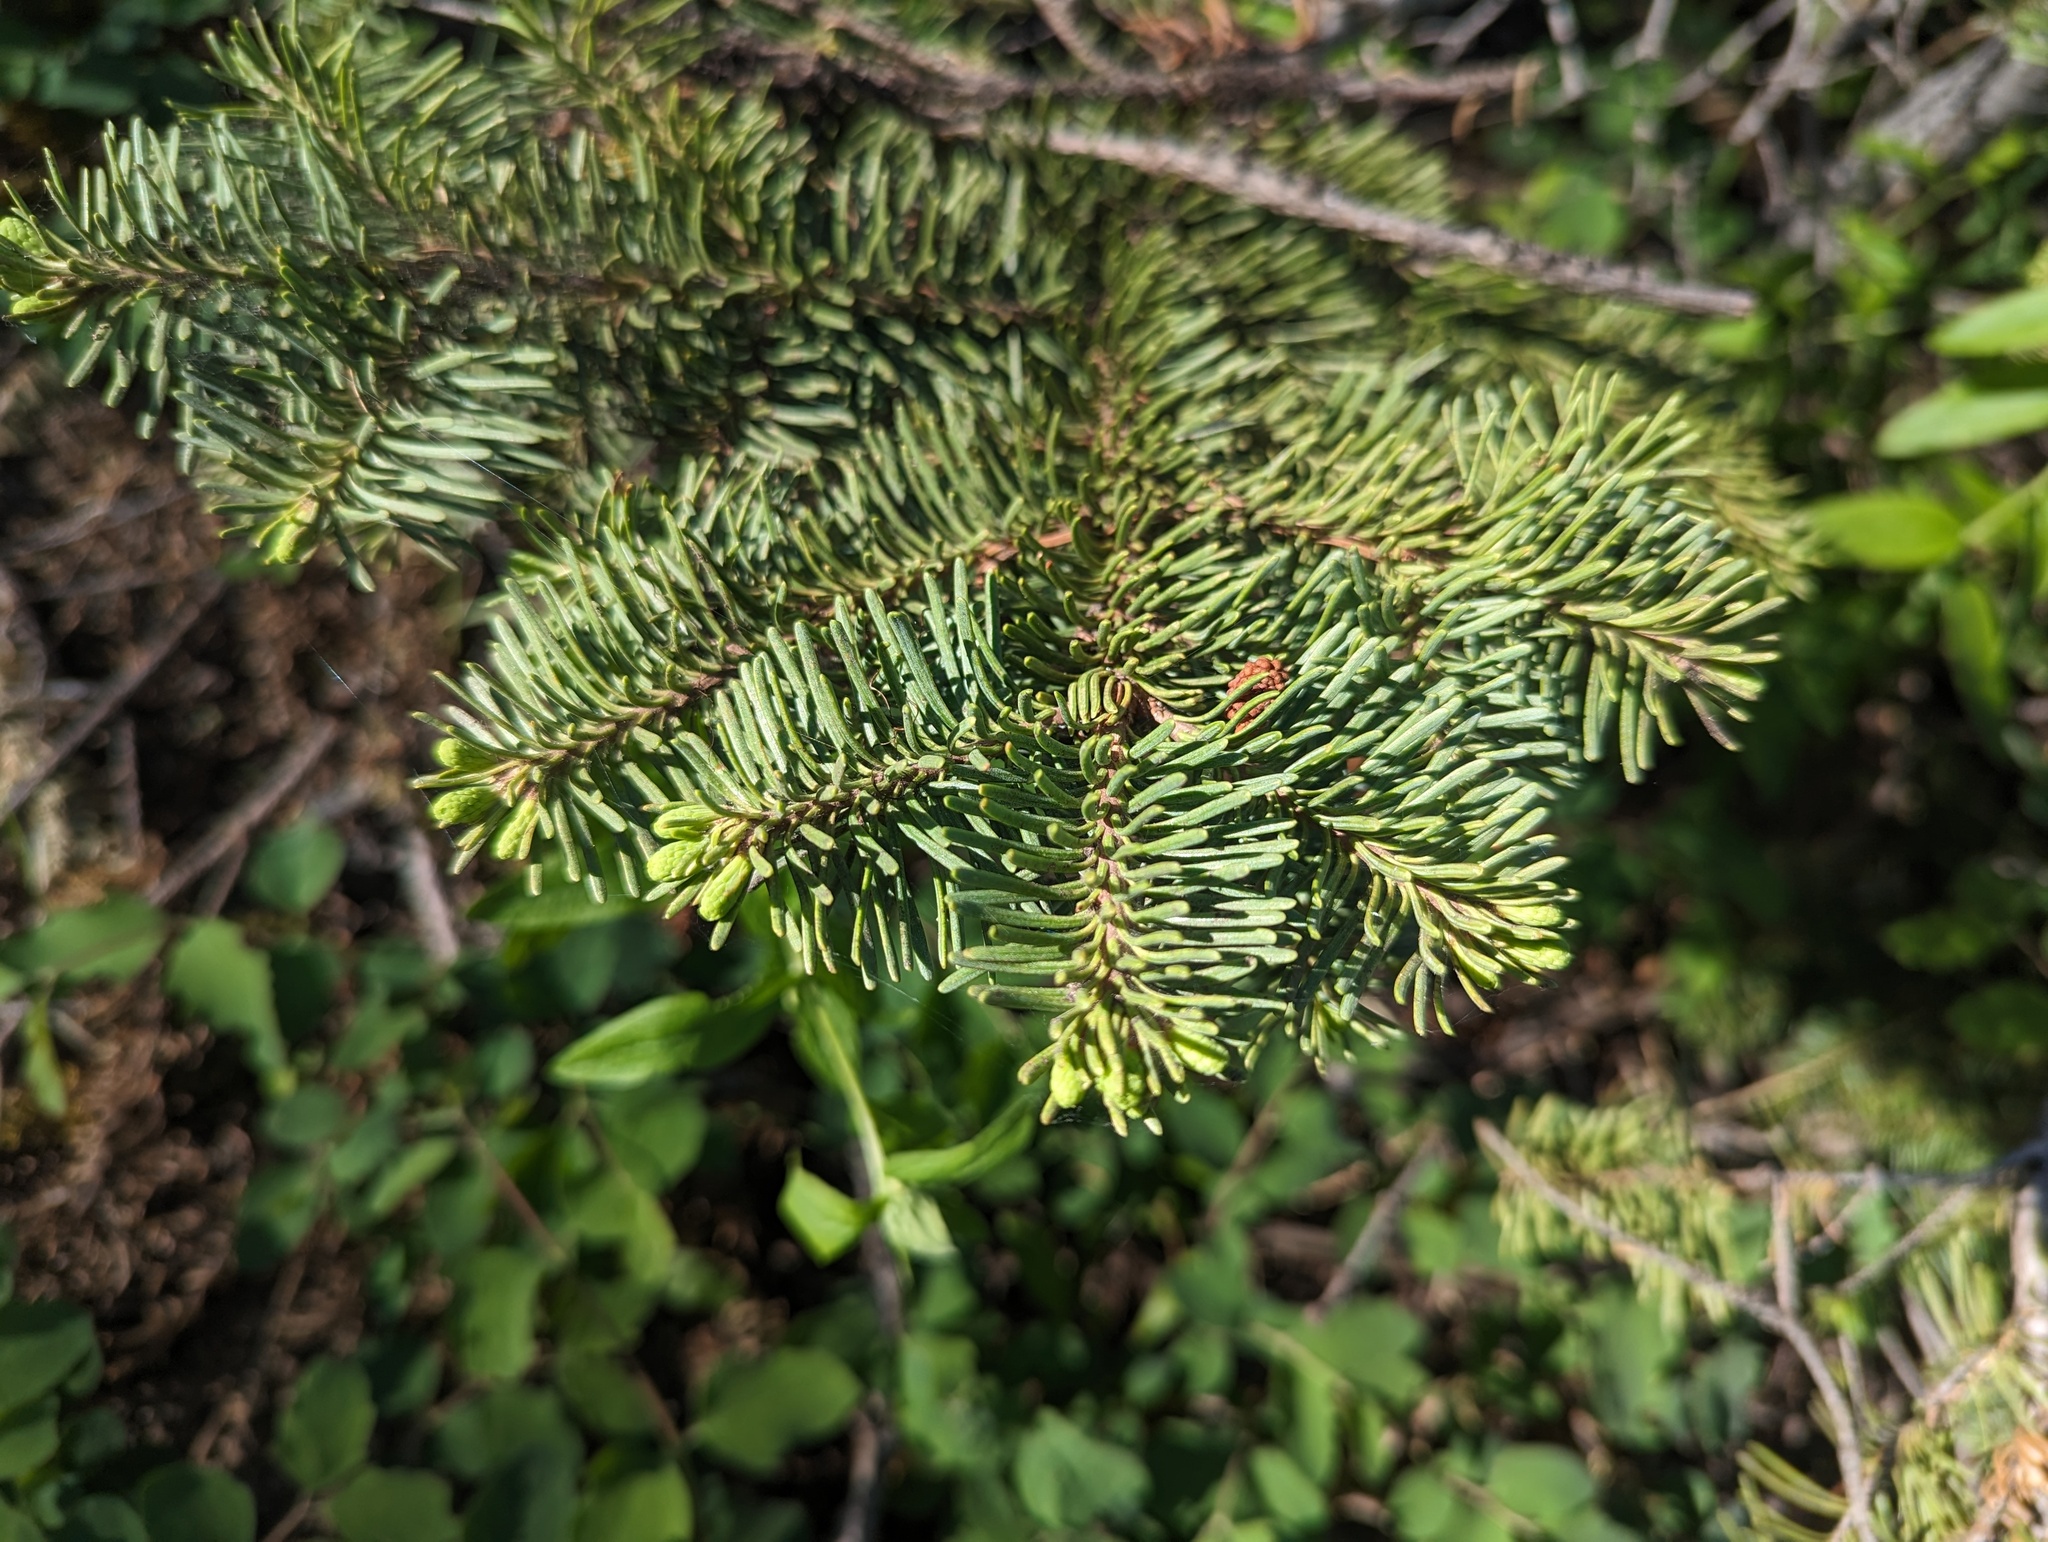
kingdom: Plantae
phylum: Tracheophyta
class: Pinopsida
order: Pinales
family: Pinaceae
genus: Abies
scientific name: Abies magnifica bis
